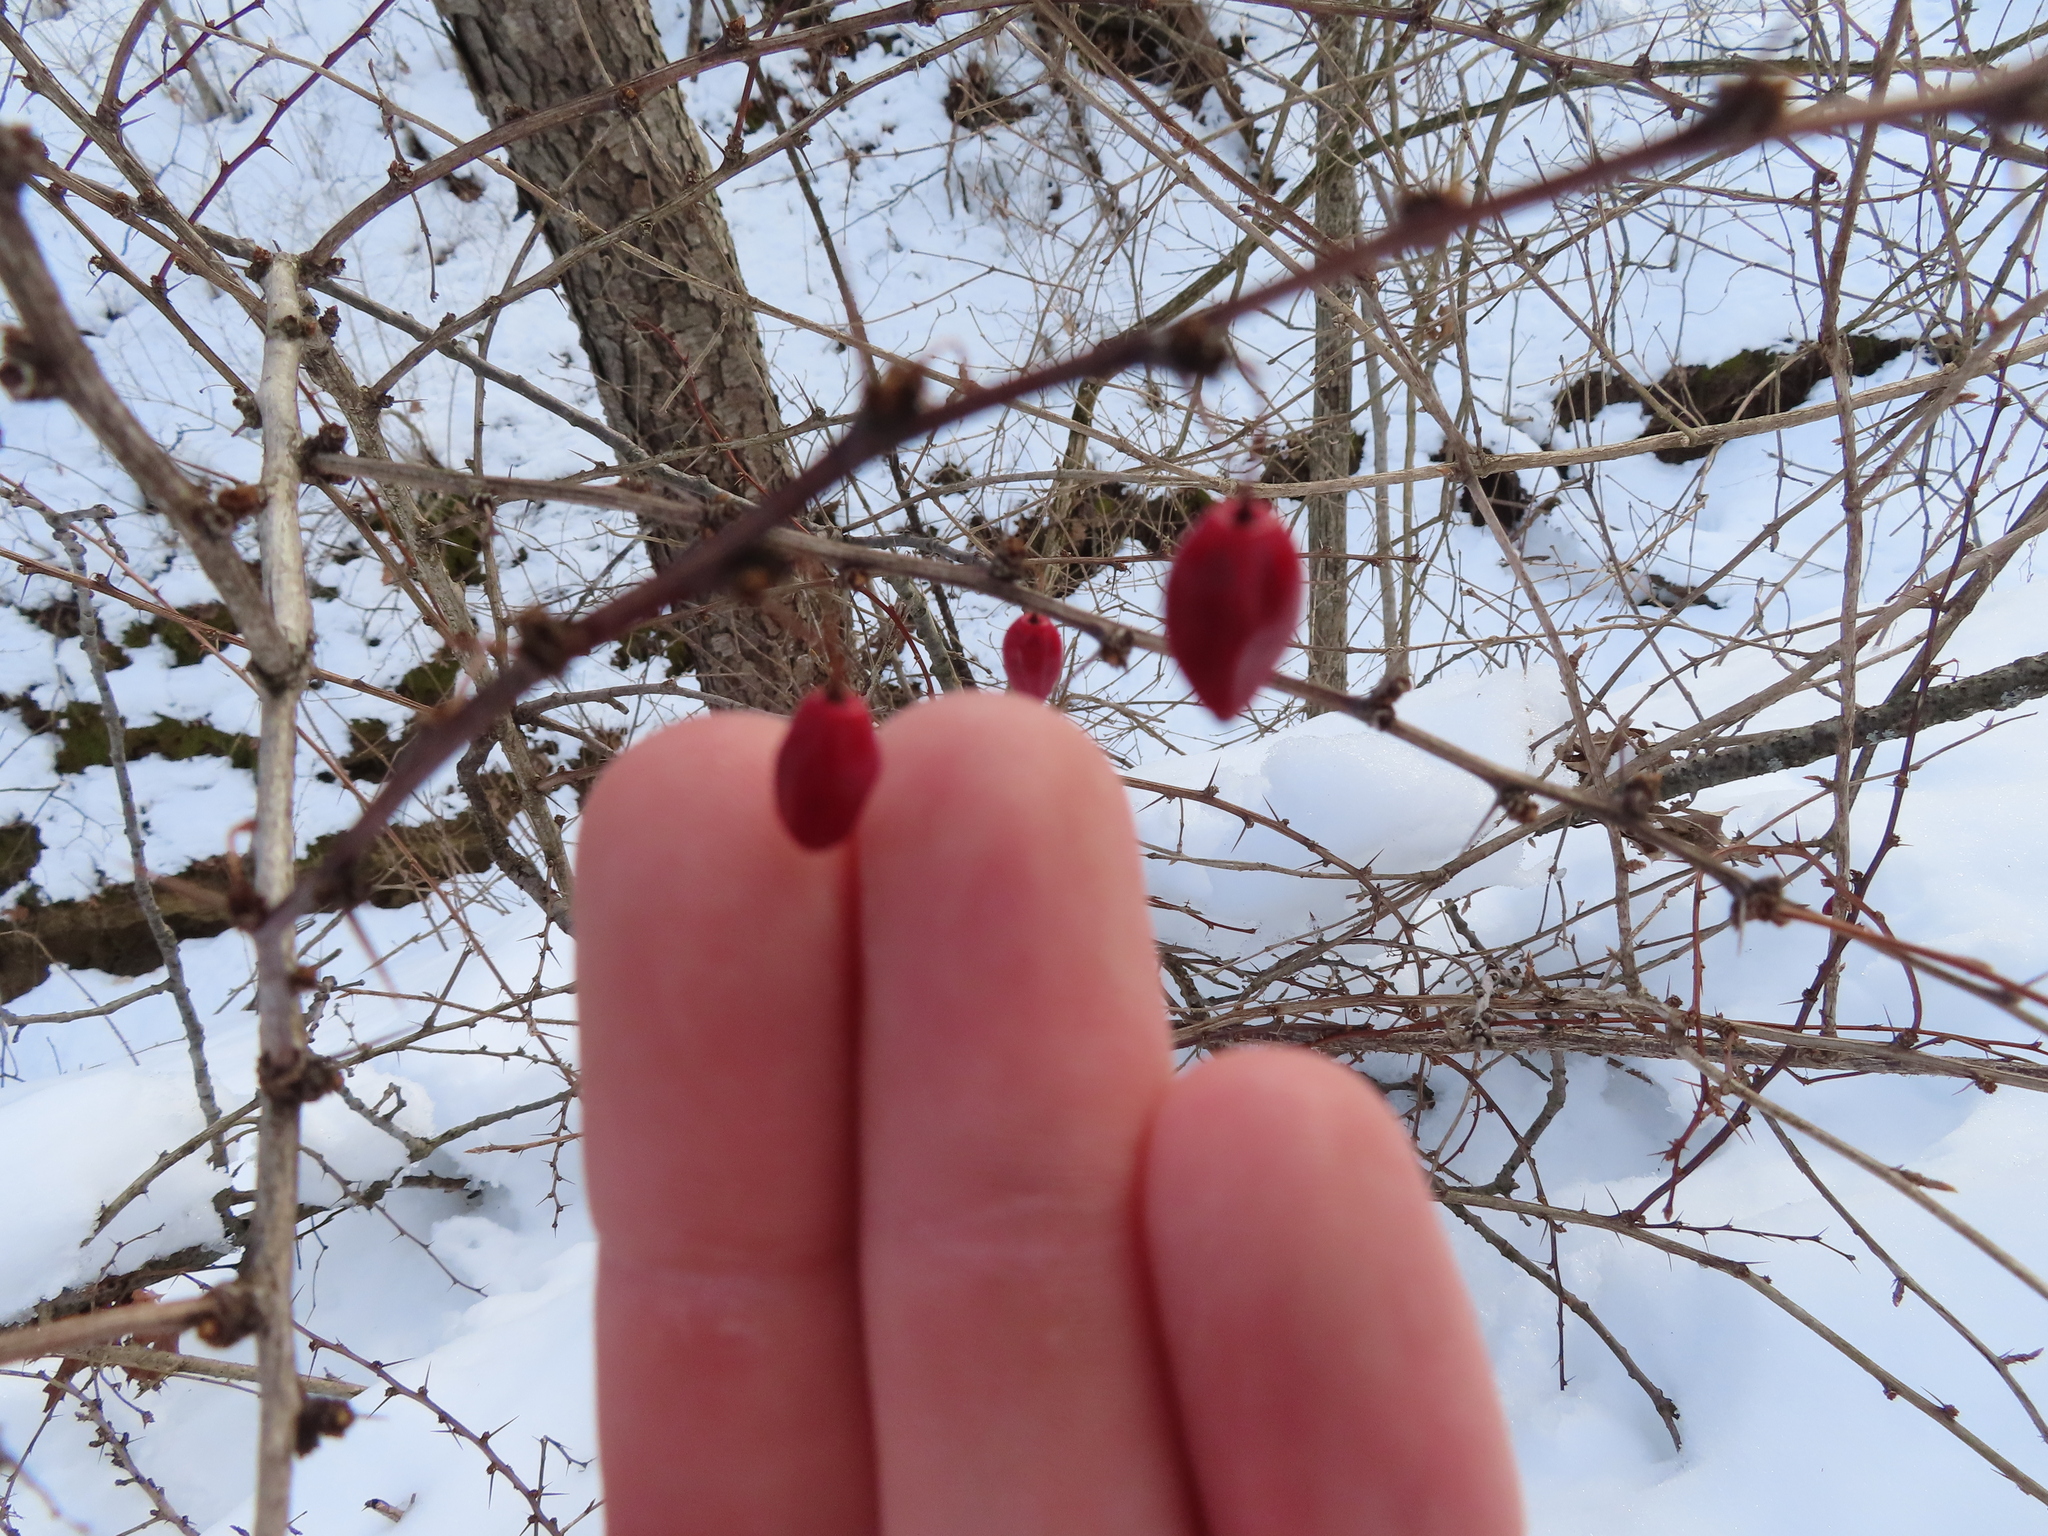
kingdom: Plantae
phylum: Tracheophyta
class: Magnoliopsida
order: Ranunculales
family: Berberidaceae
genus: Berberis
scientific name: Berberis thunbergii
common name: Japanese barberry
